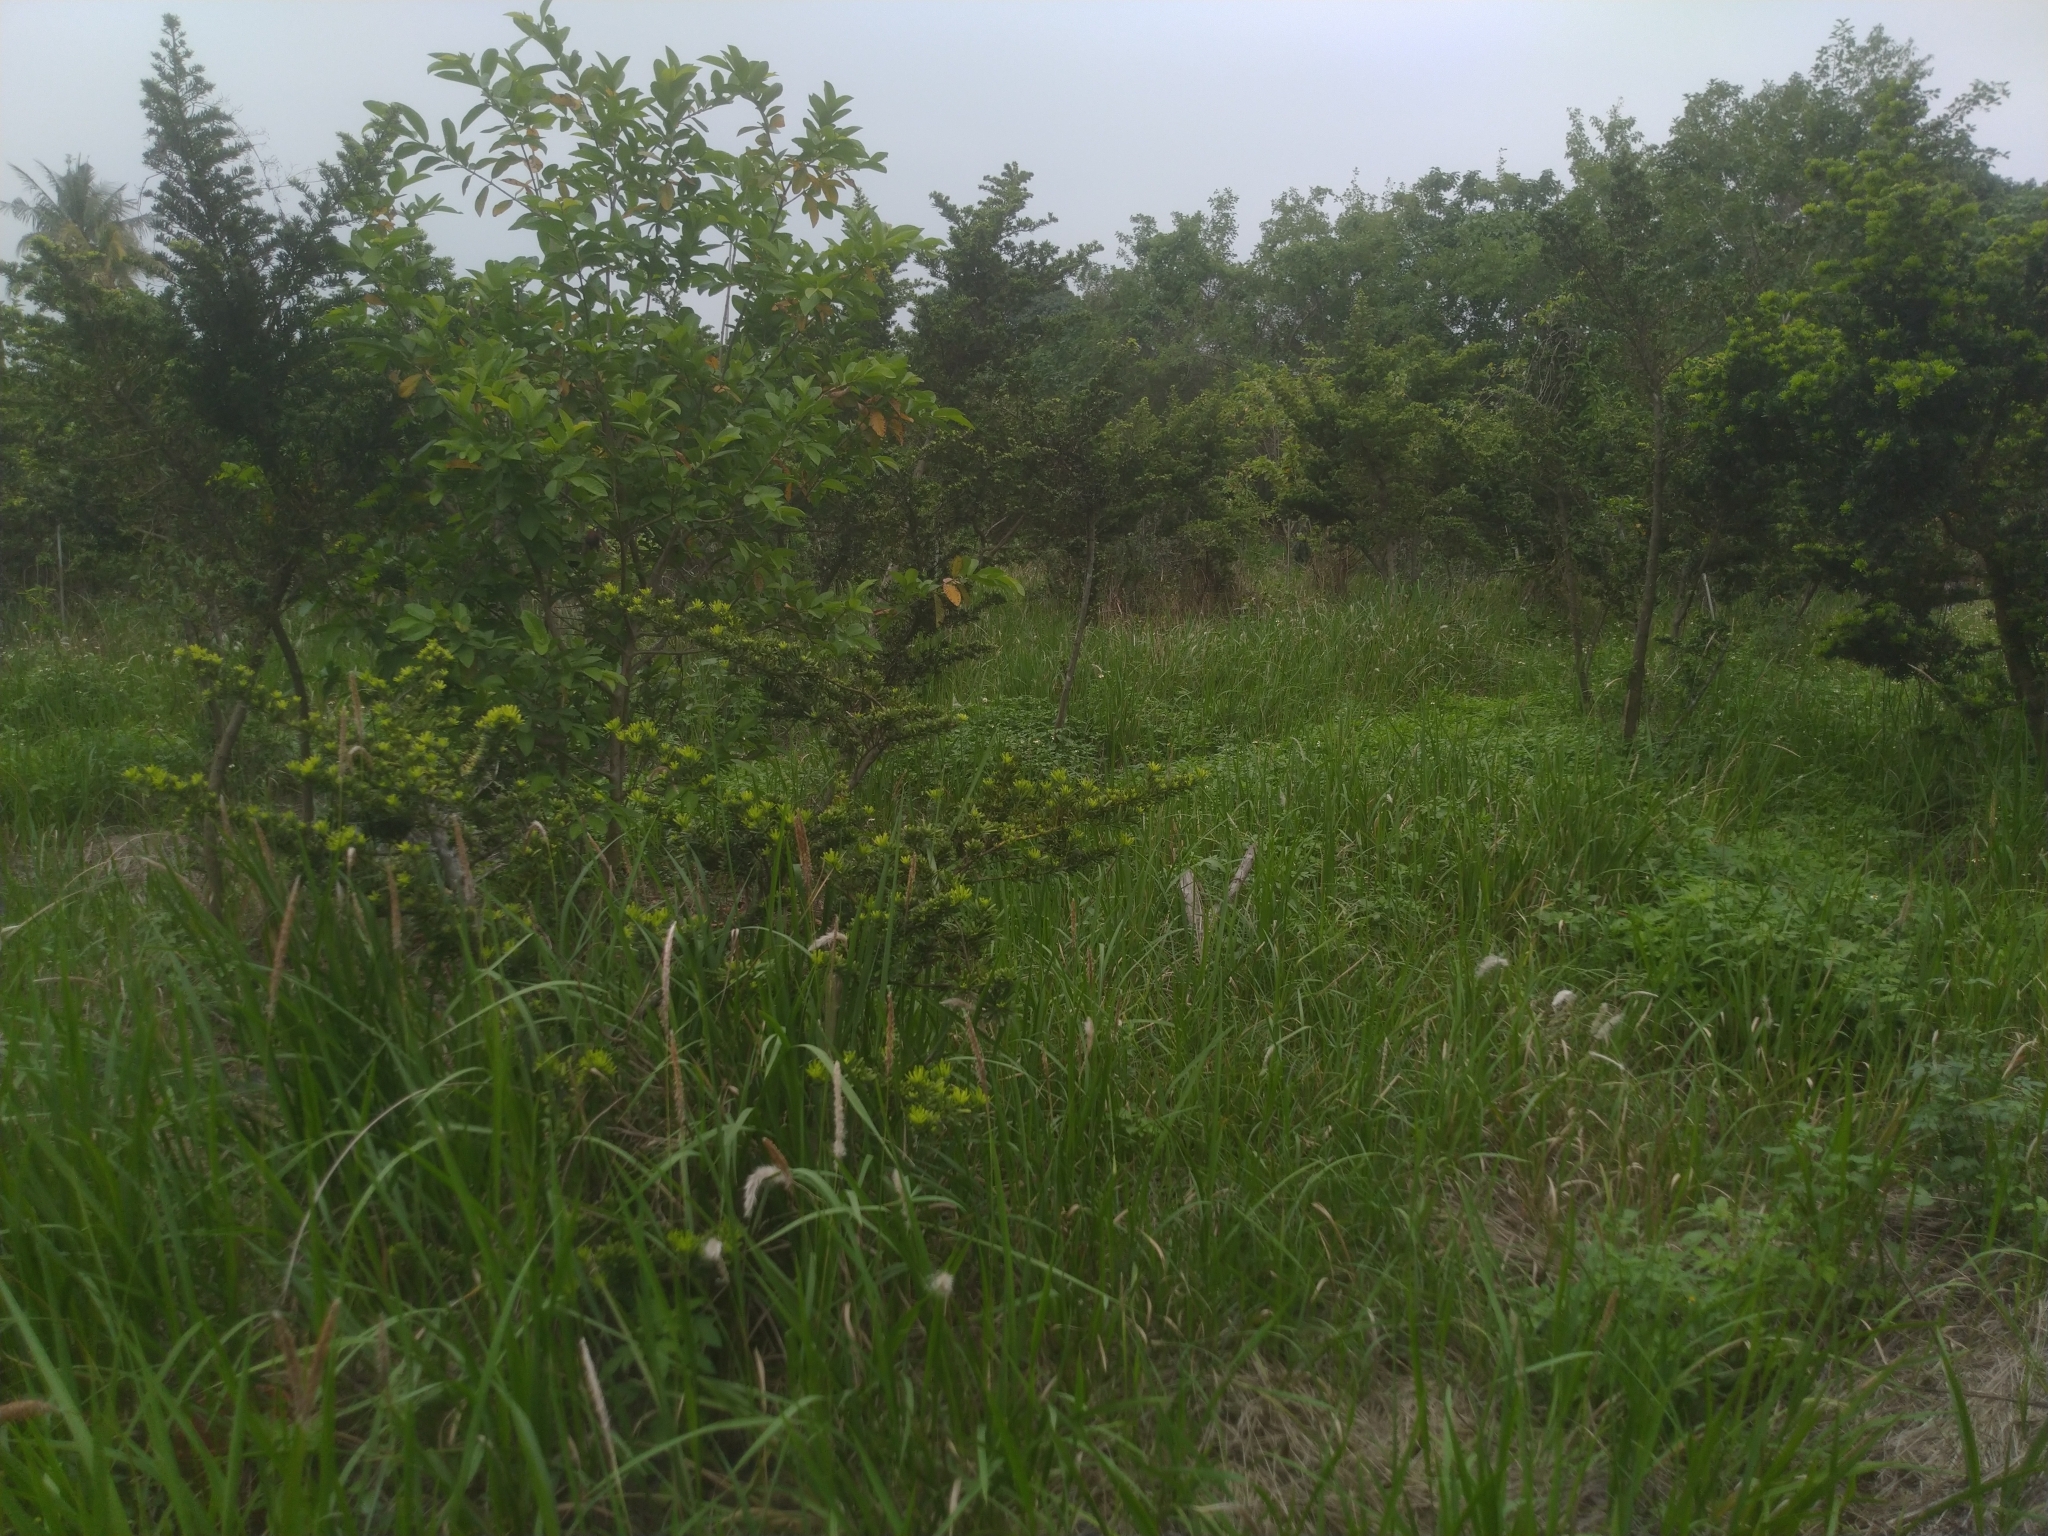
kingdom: Plantae
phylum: Tracheophyta
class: Liliopsida
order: Poales
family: Poaceae
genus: Imperata
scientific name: Imperata cylindrica
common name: Cogongrass
